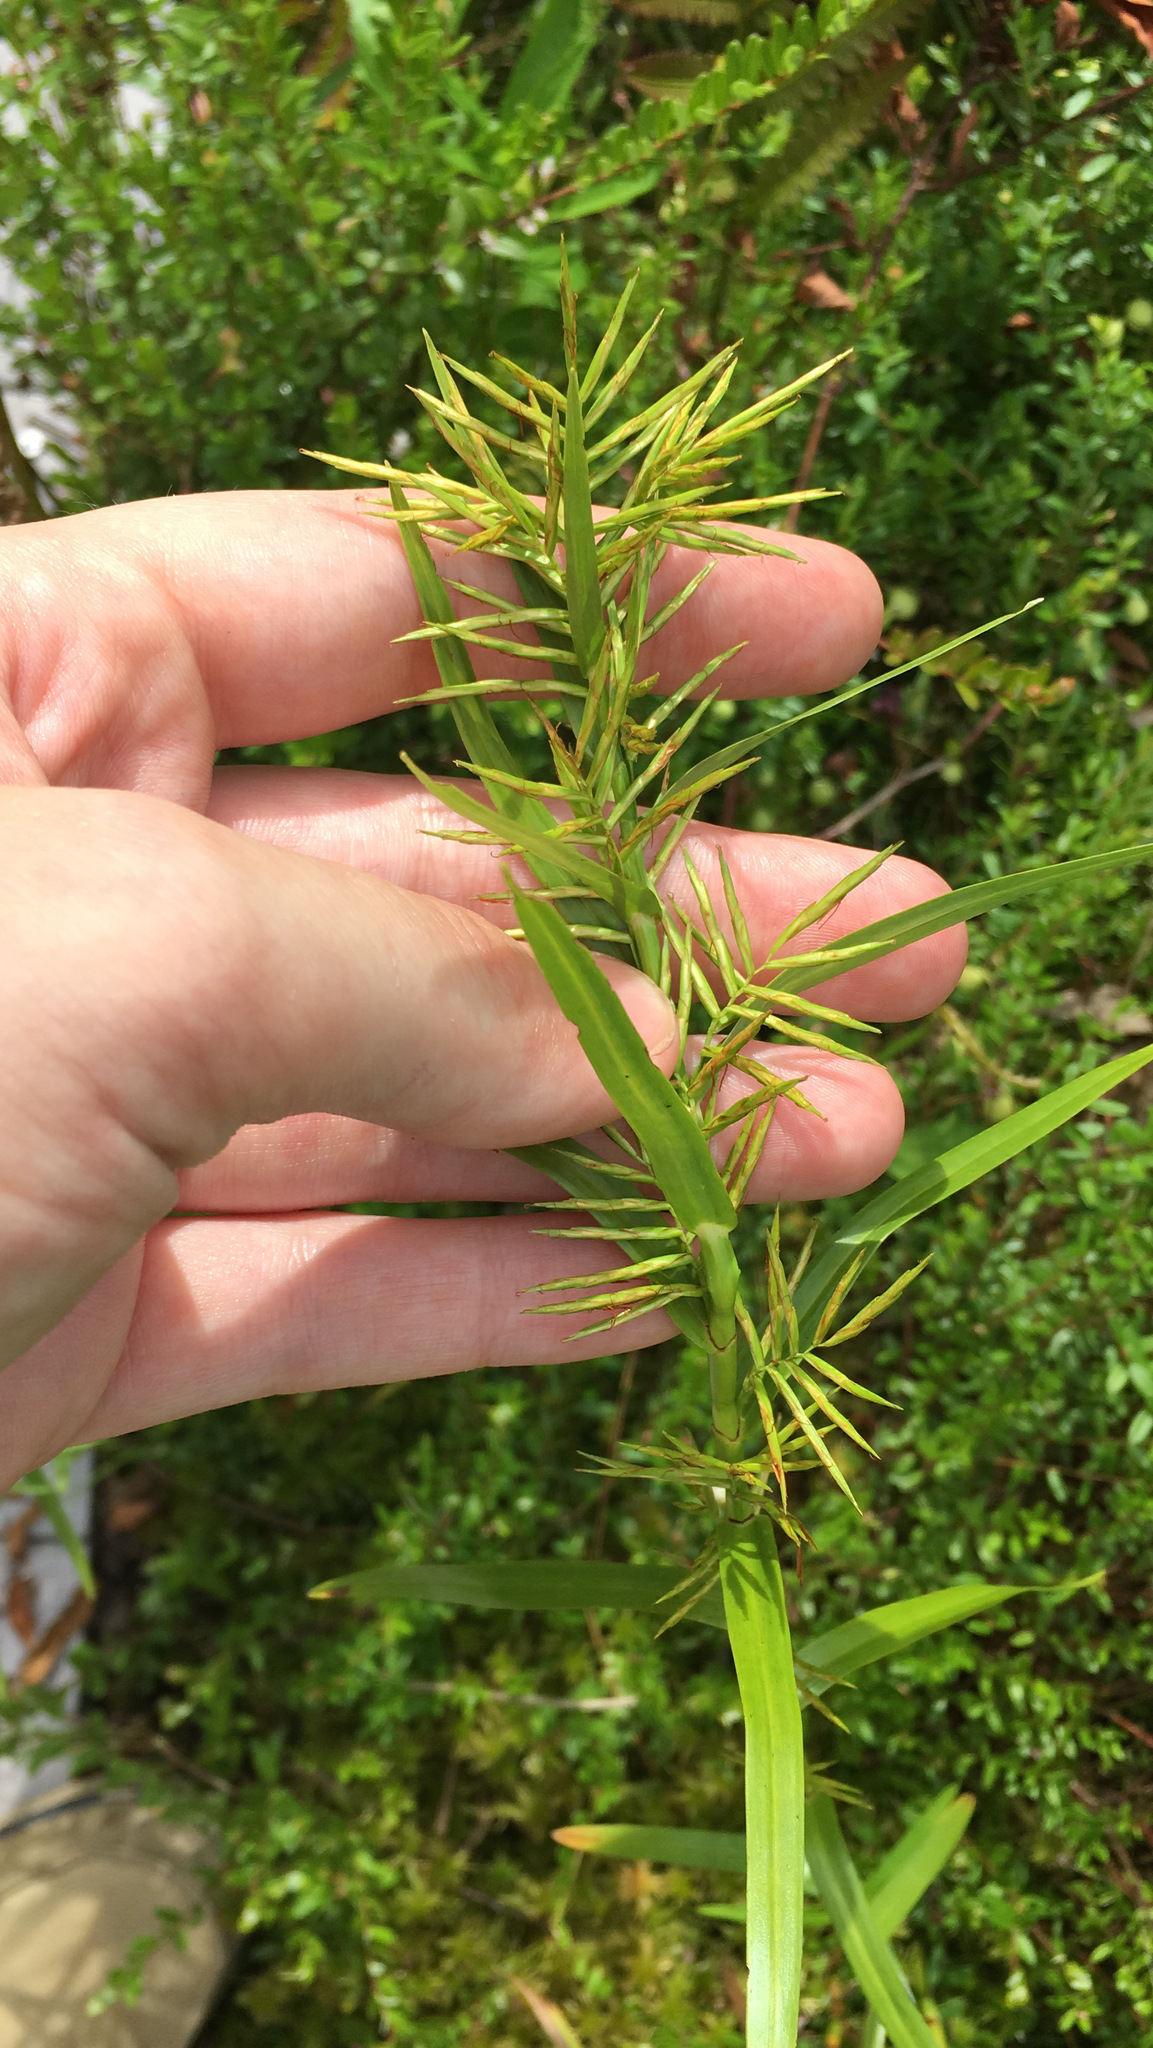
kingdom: Plantae
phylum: Tracheophyta
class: Liliopsida
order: Poales
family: Cyperaceae
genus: Dulichium
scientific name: Dulichium arundinaceum
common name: Three-way sedge
